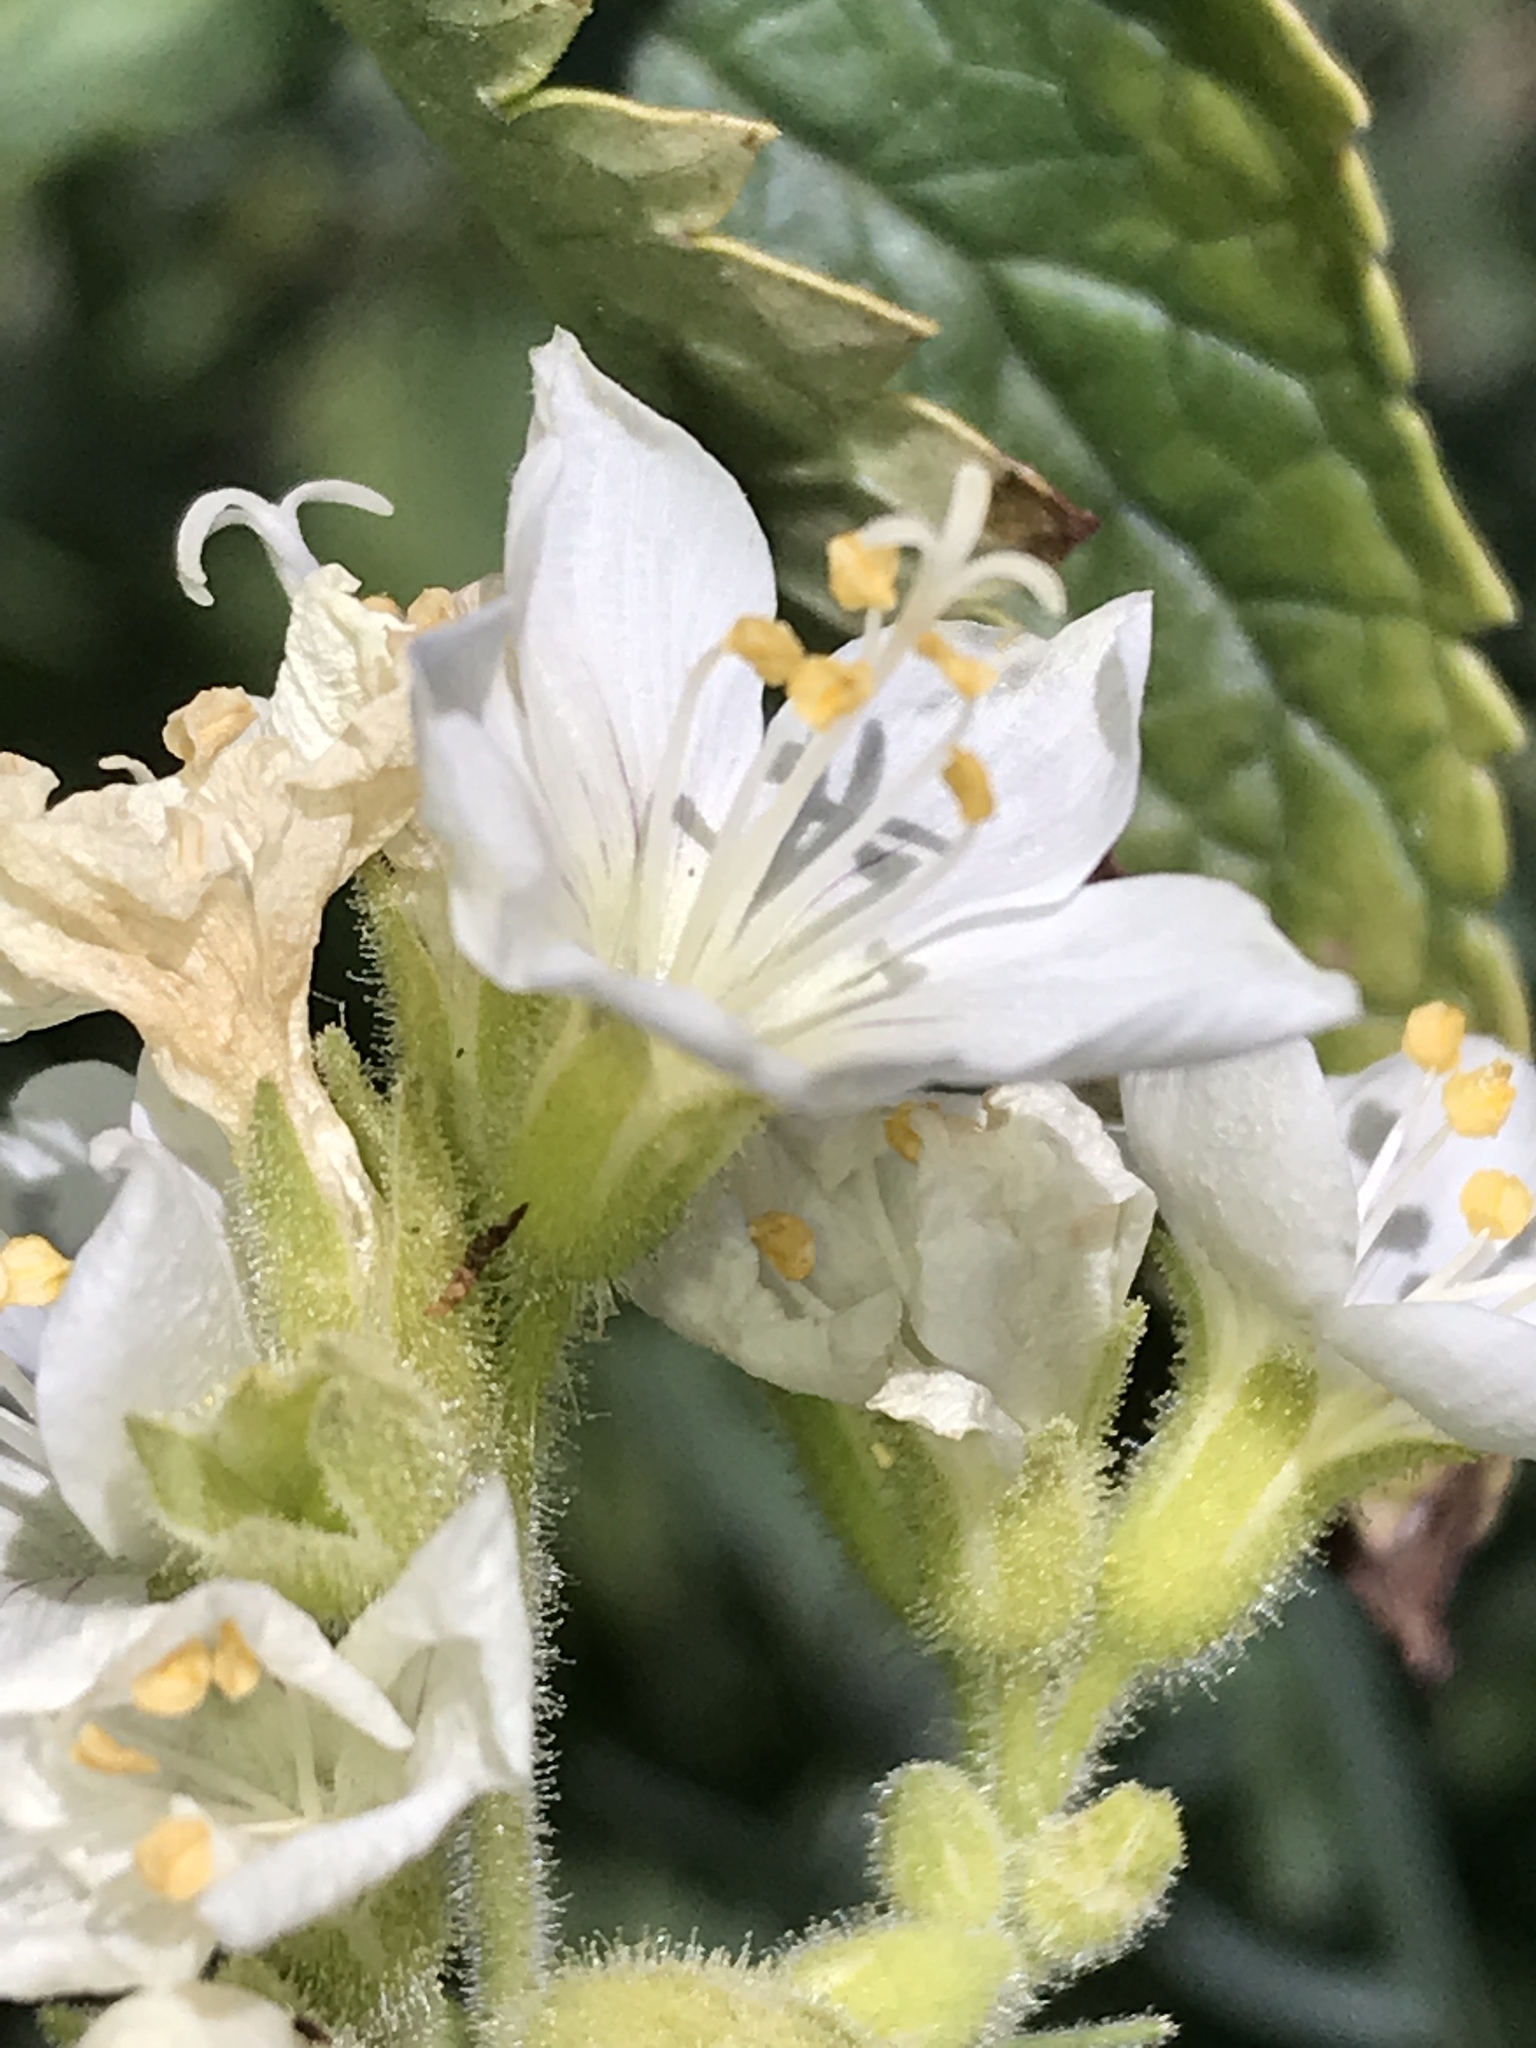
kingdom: Plantae
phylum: Tracheophyta
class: Magnoliopsida
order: Ericales
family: Polemoniaceae
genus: Polemonium
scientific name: Polemonium foliosissimum
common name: Leafy jacob's-ladder
